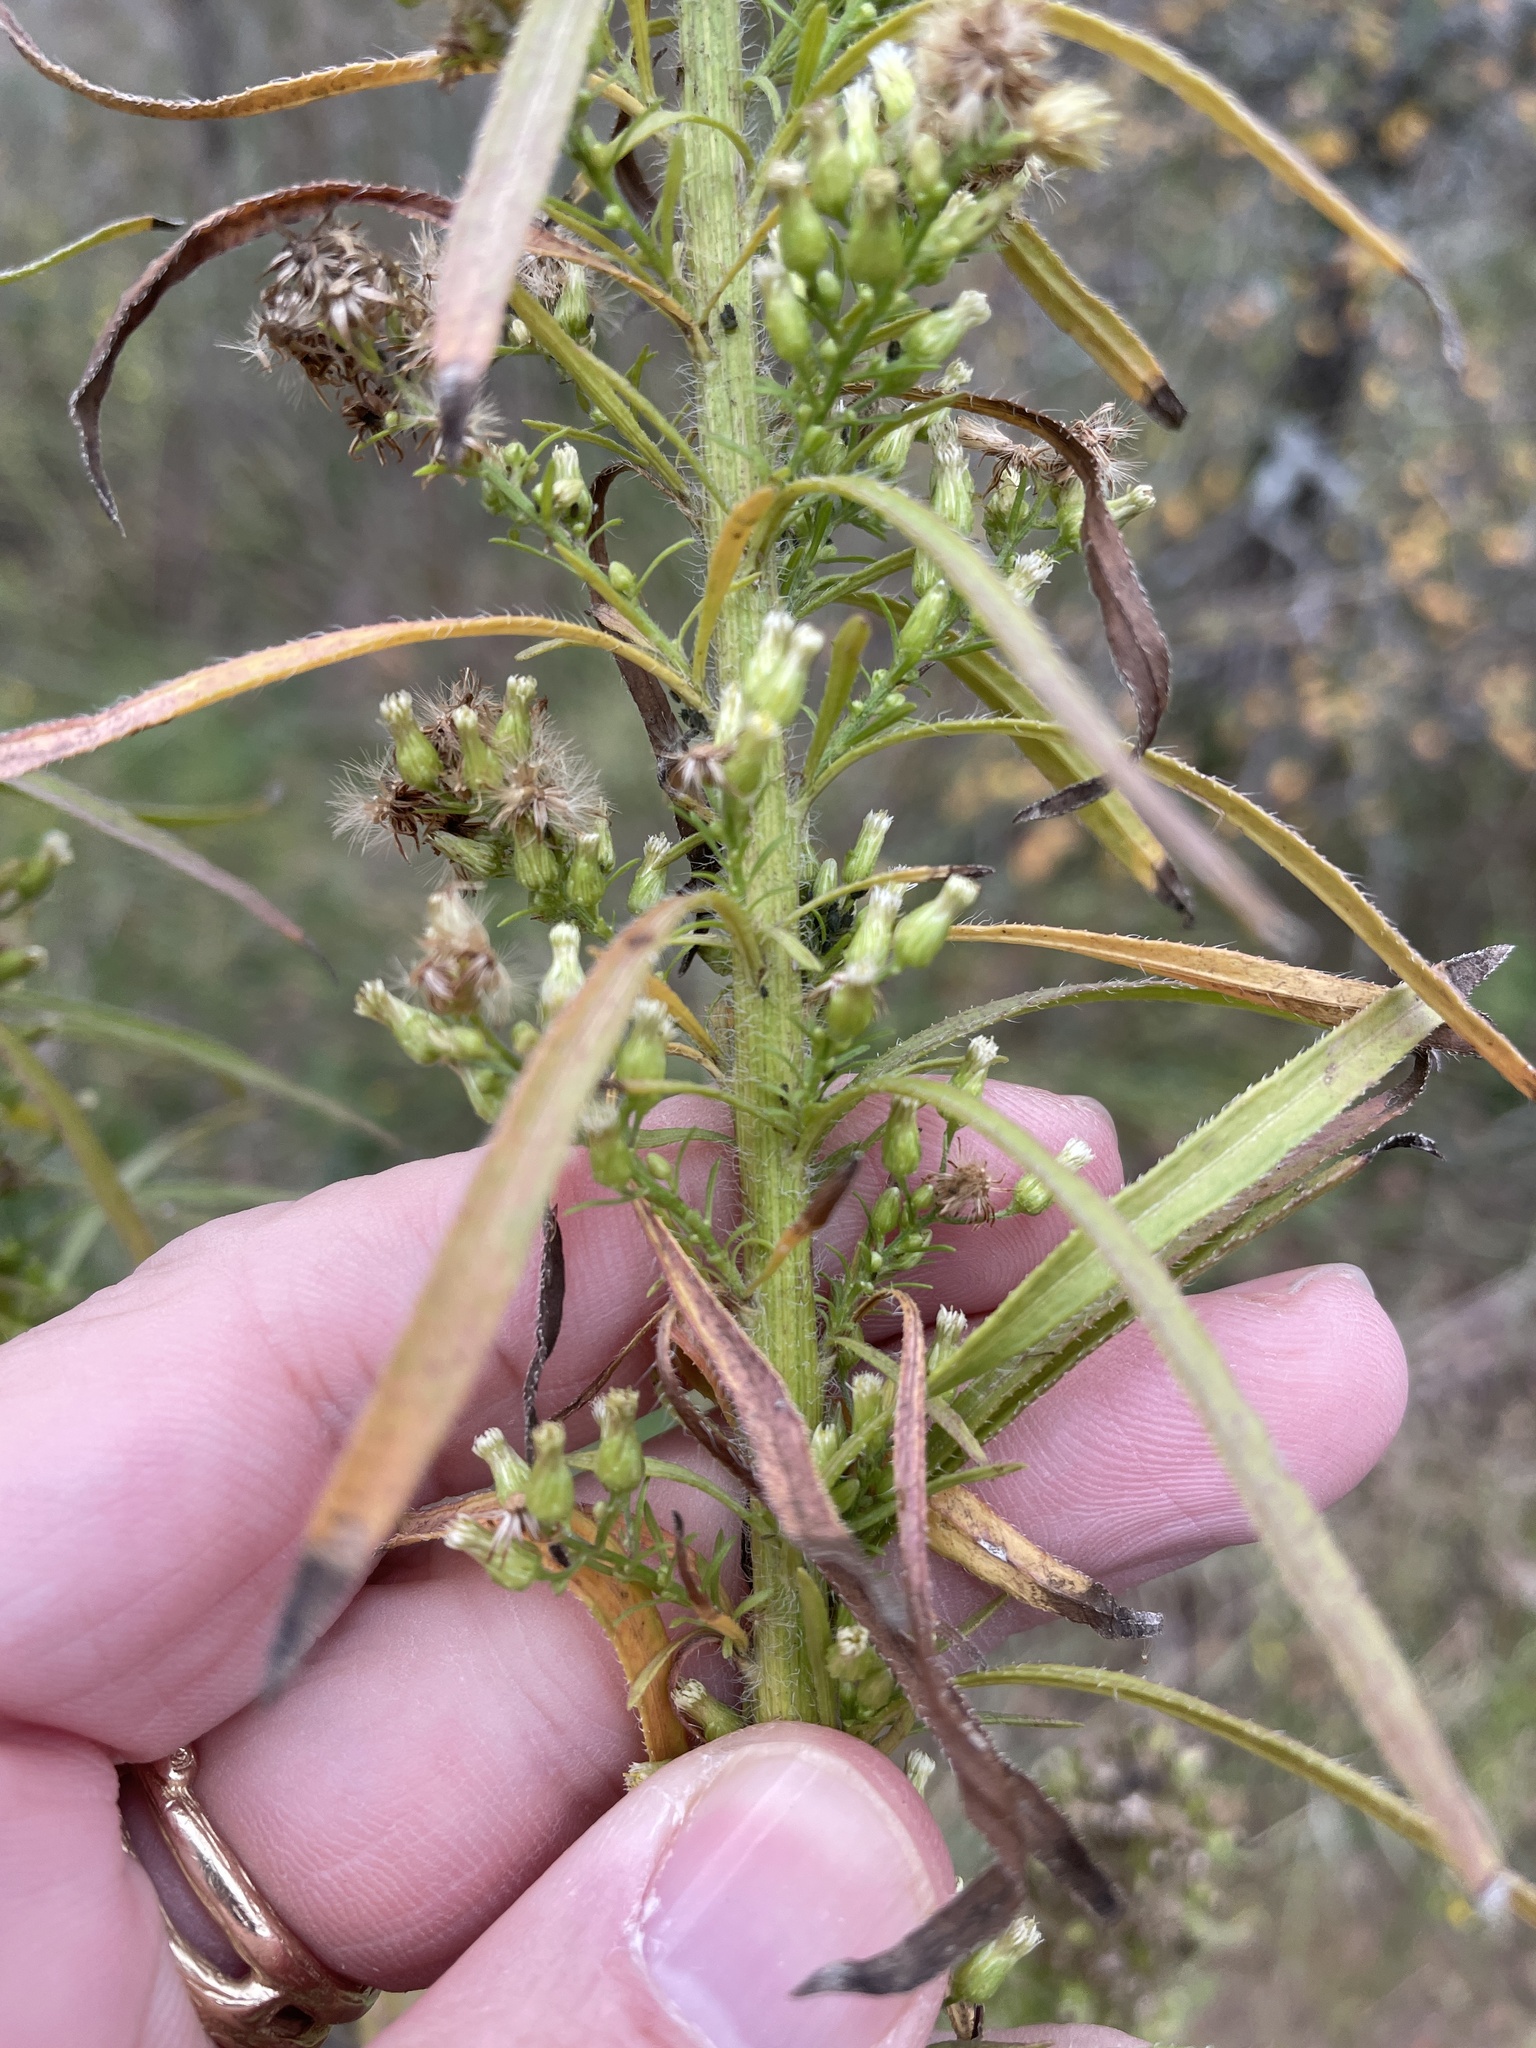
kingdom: Plantae
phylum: Tracheophyta
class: Magnoliopsida
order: Asterales
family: Asteraceae
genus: Erigeron
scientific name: Erigeron canadensis
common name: Canadian fleabane
